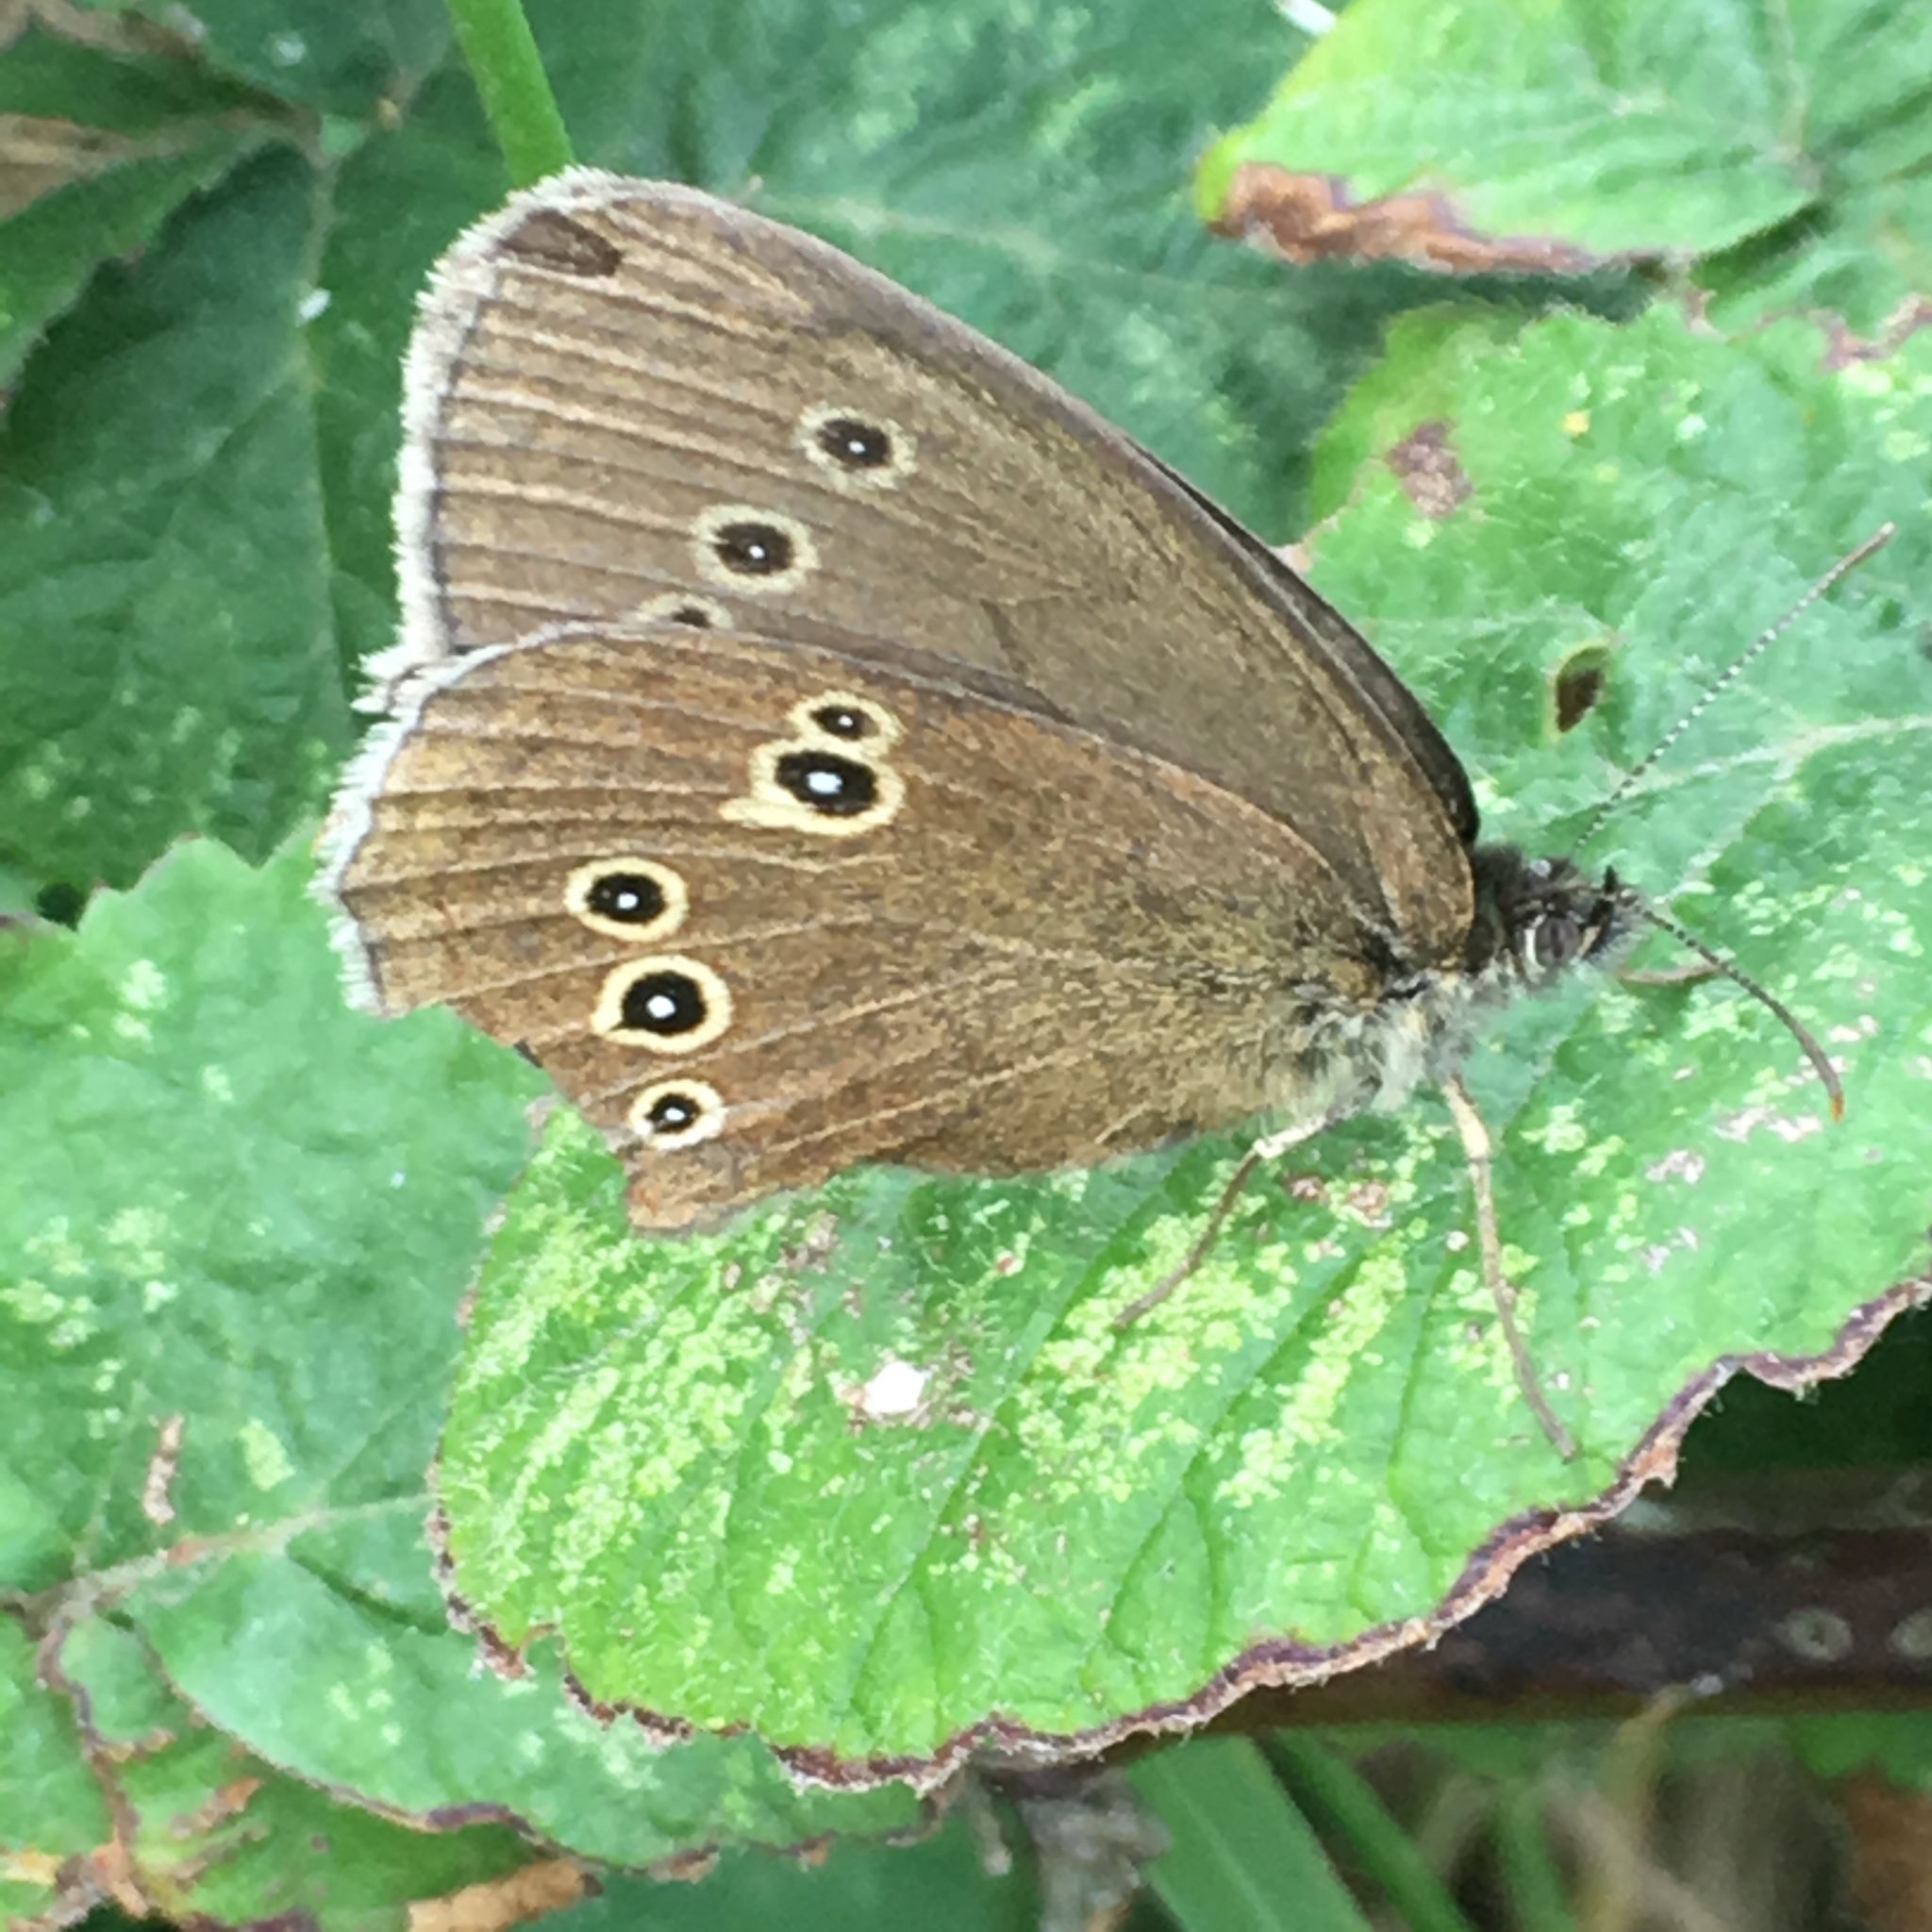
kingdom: Animalia
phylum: Arthropoda
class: Insecta
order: Lepidoptera
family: Nymphalidae
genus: Aphantopus
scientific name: Aphantopus hyperantus
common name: Ringlet
